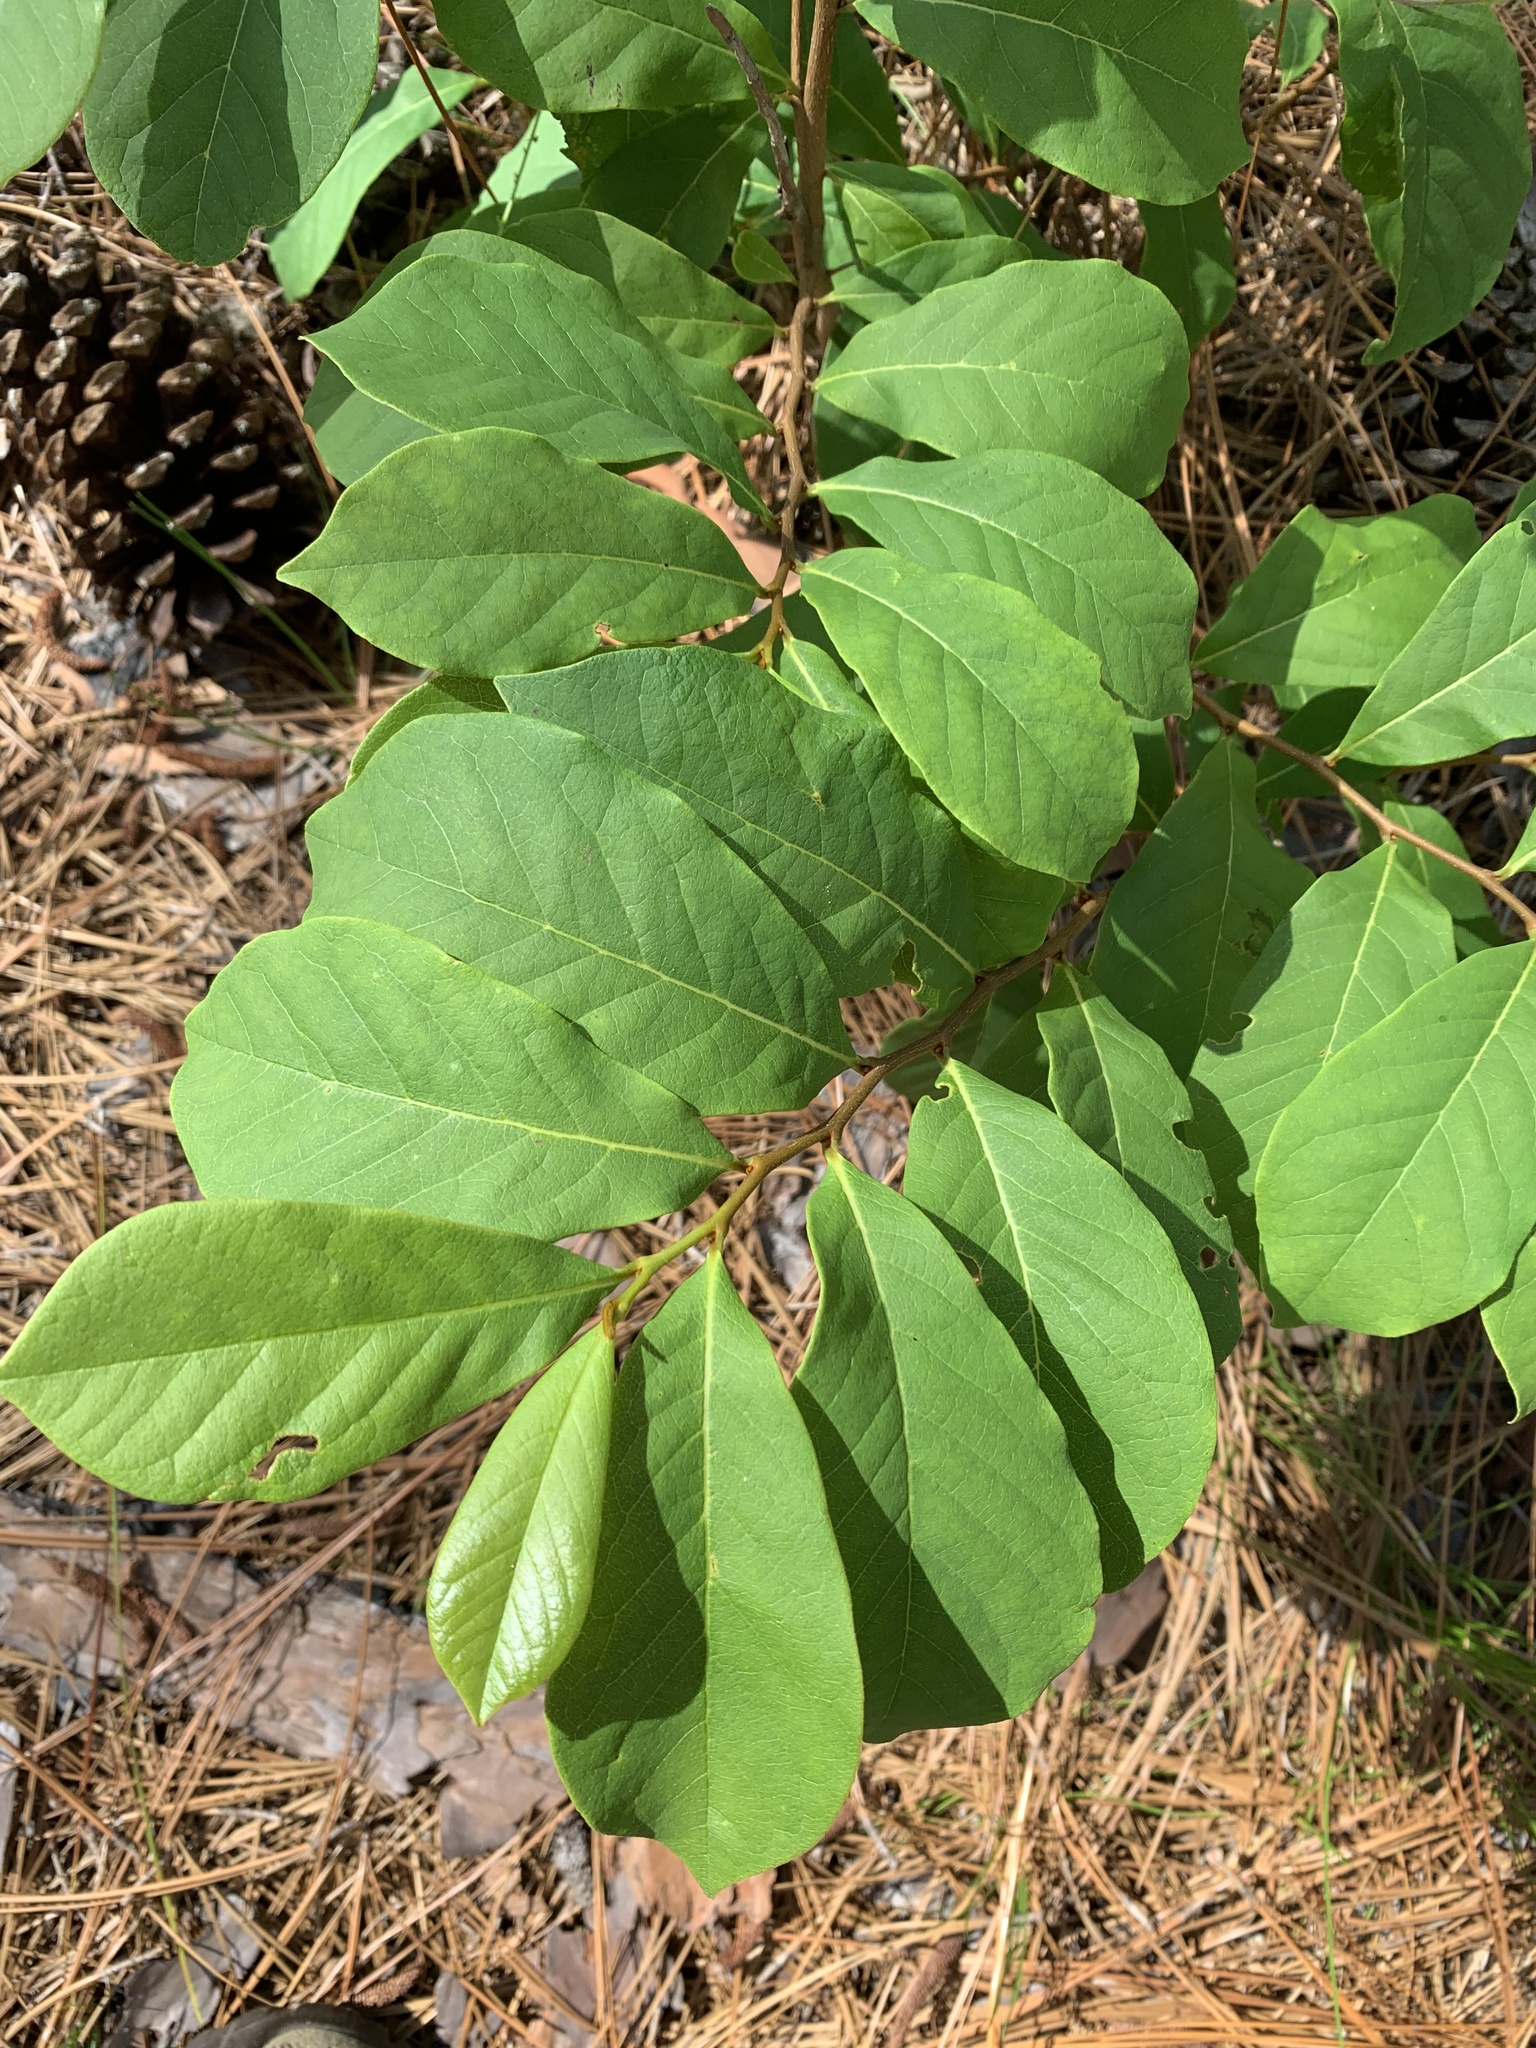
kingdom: Plantae
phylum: Tracheophyta
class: Magnoliopsida
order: Magnoliales
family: Annonaceae
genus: Asimina
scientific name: Asimina parviflora
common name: Dwarf pawpaw
